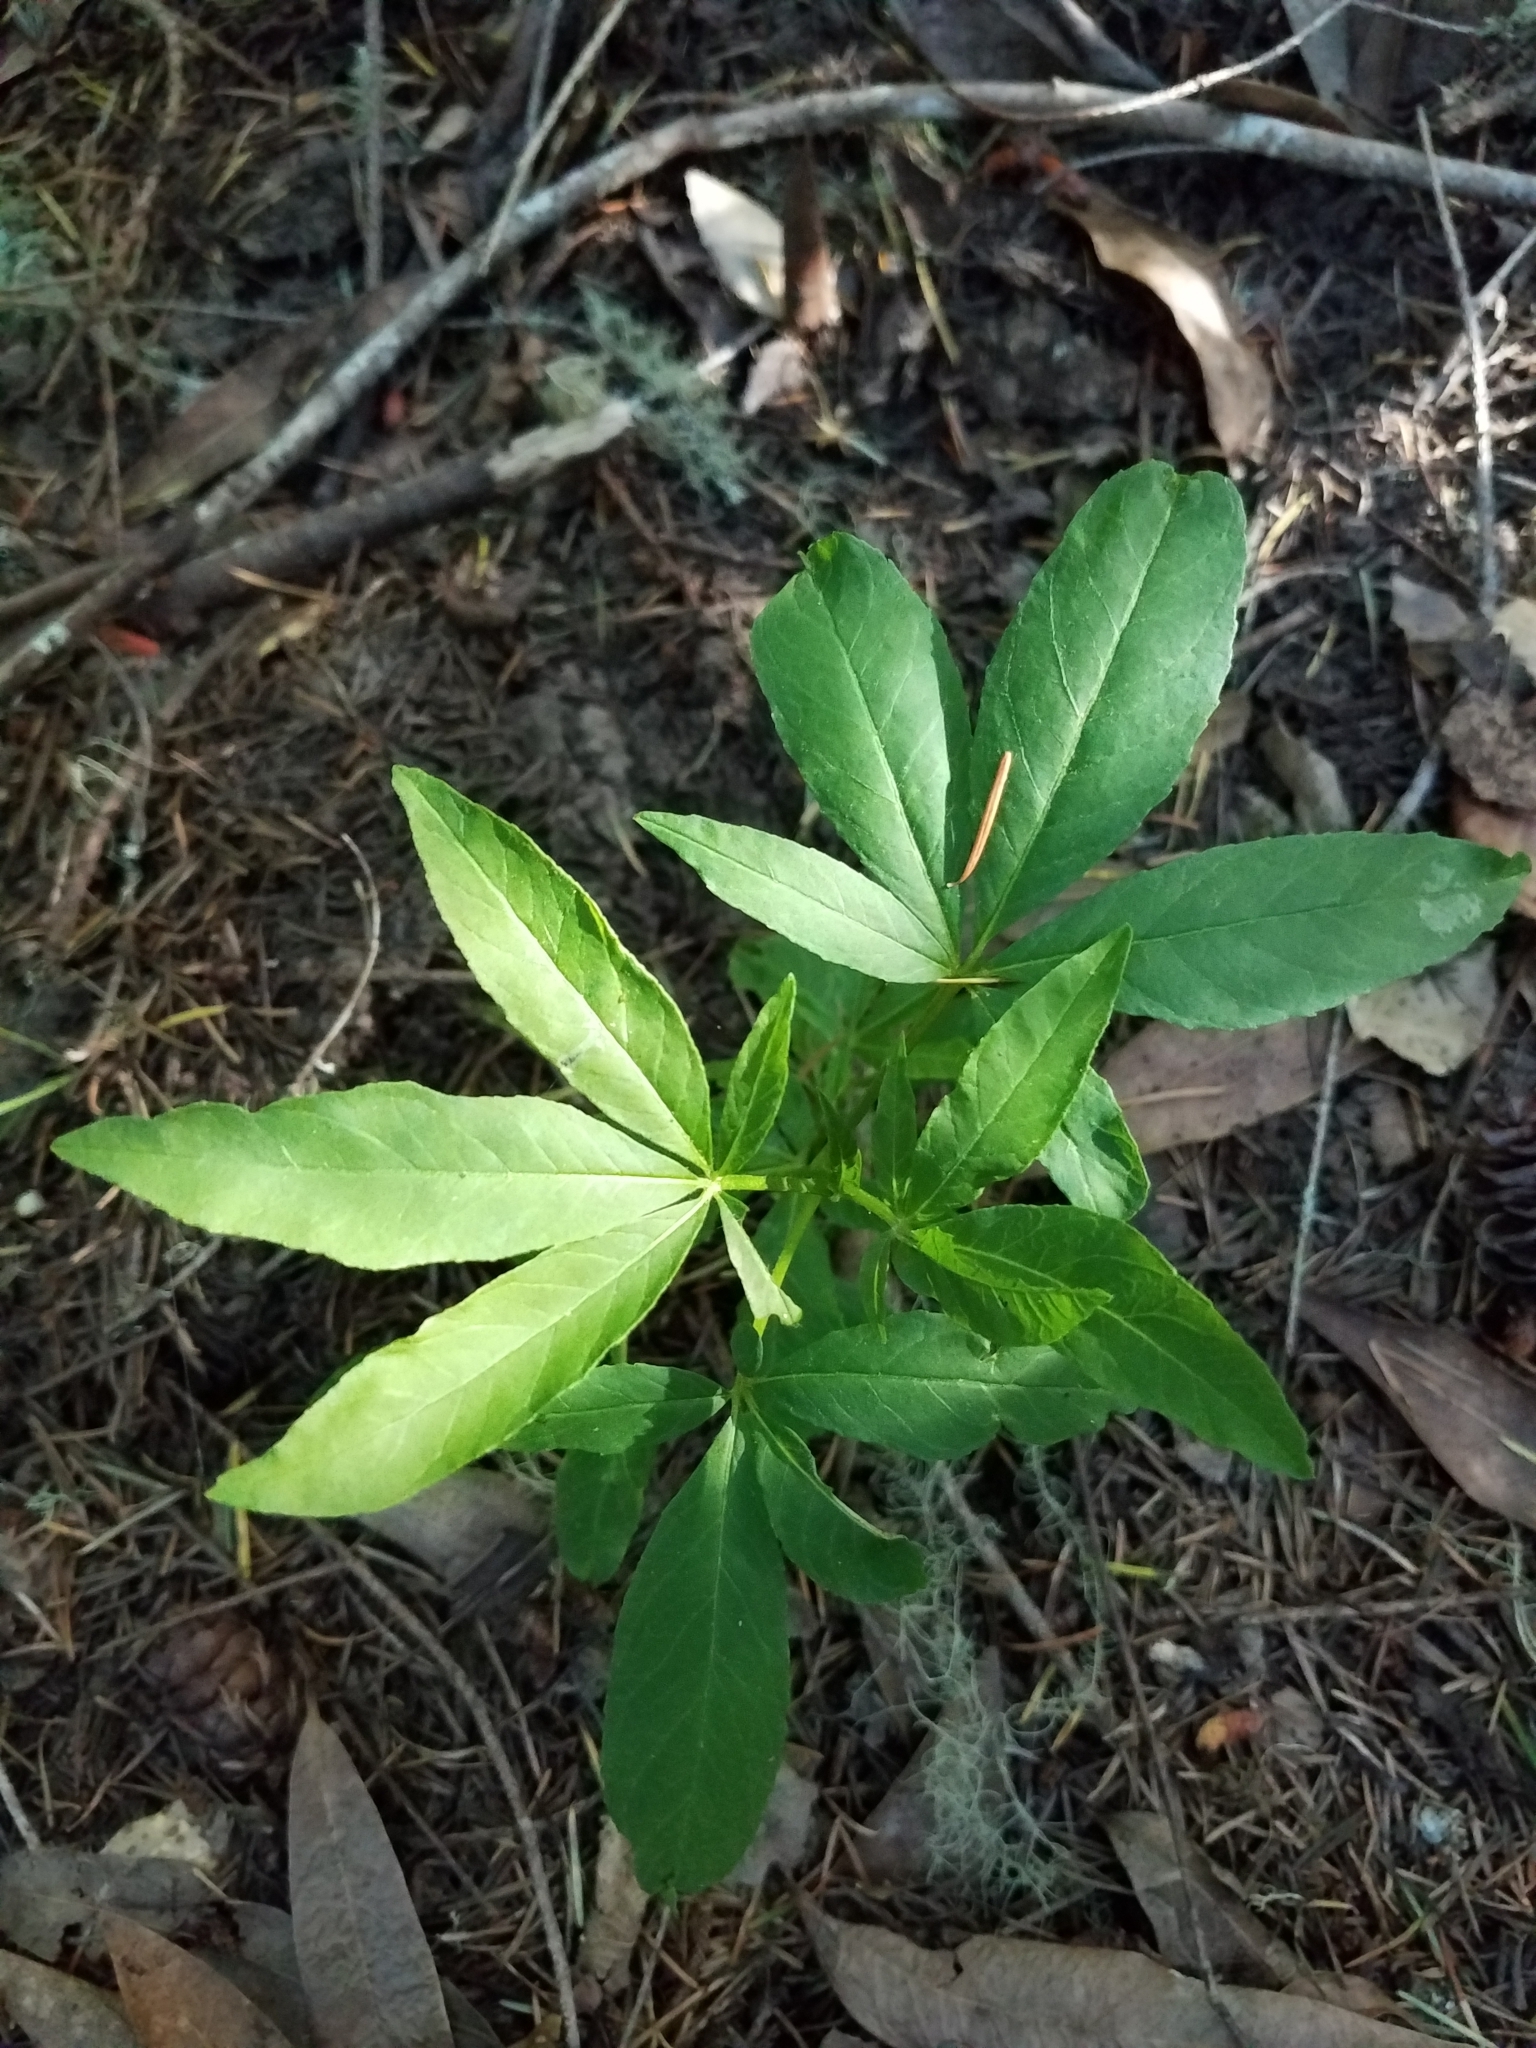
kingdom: Plantae
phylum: Tracheophyta
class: Magnoliopsida
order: Sapindales
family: Sapindaceae
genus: Aesculus
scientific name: Aesculus californica
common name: California buckeye
